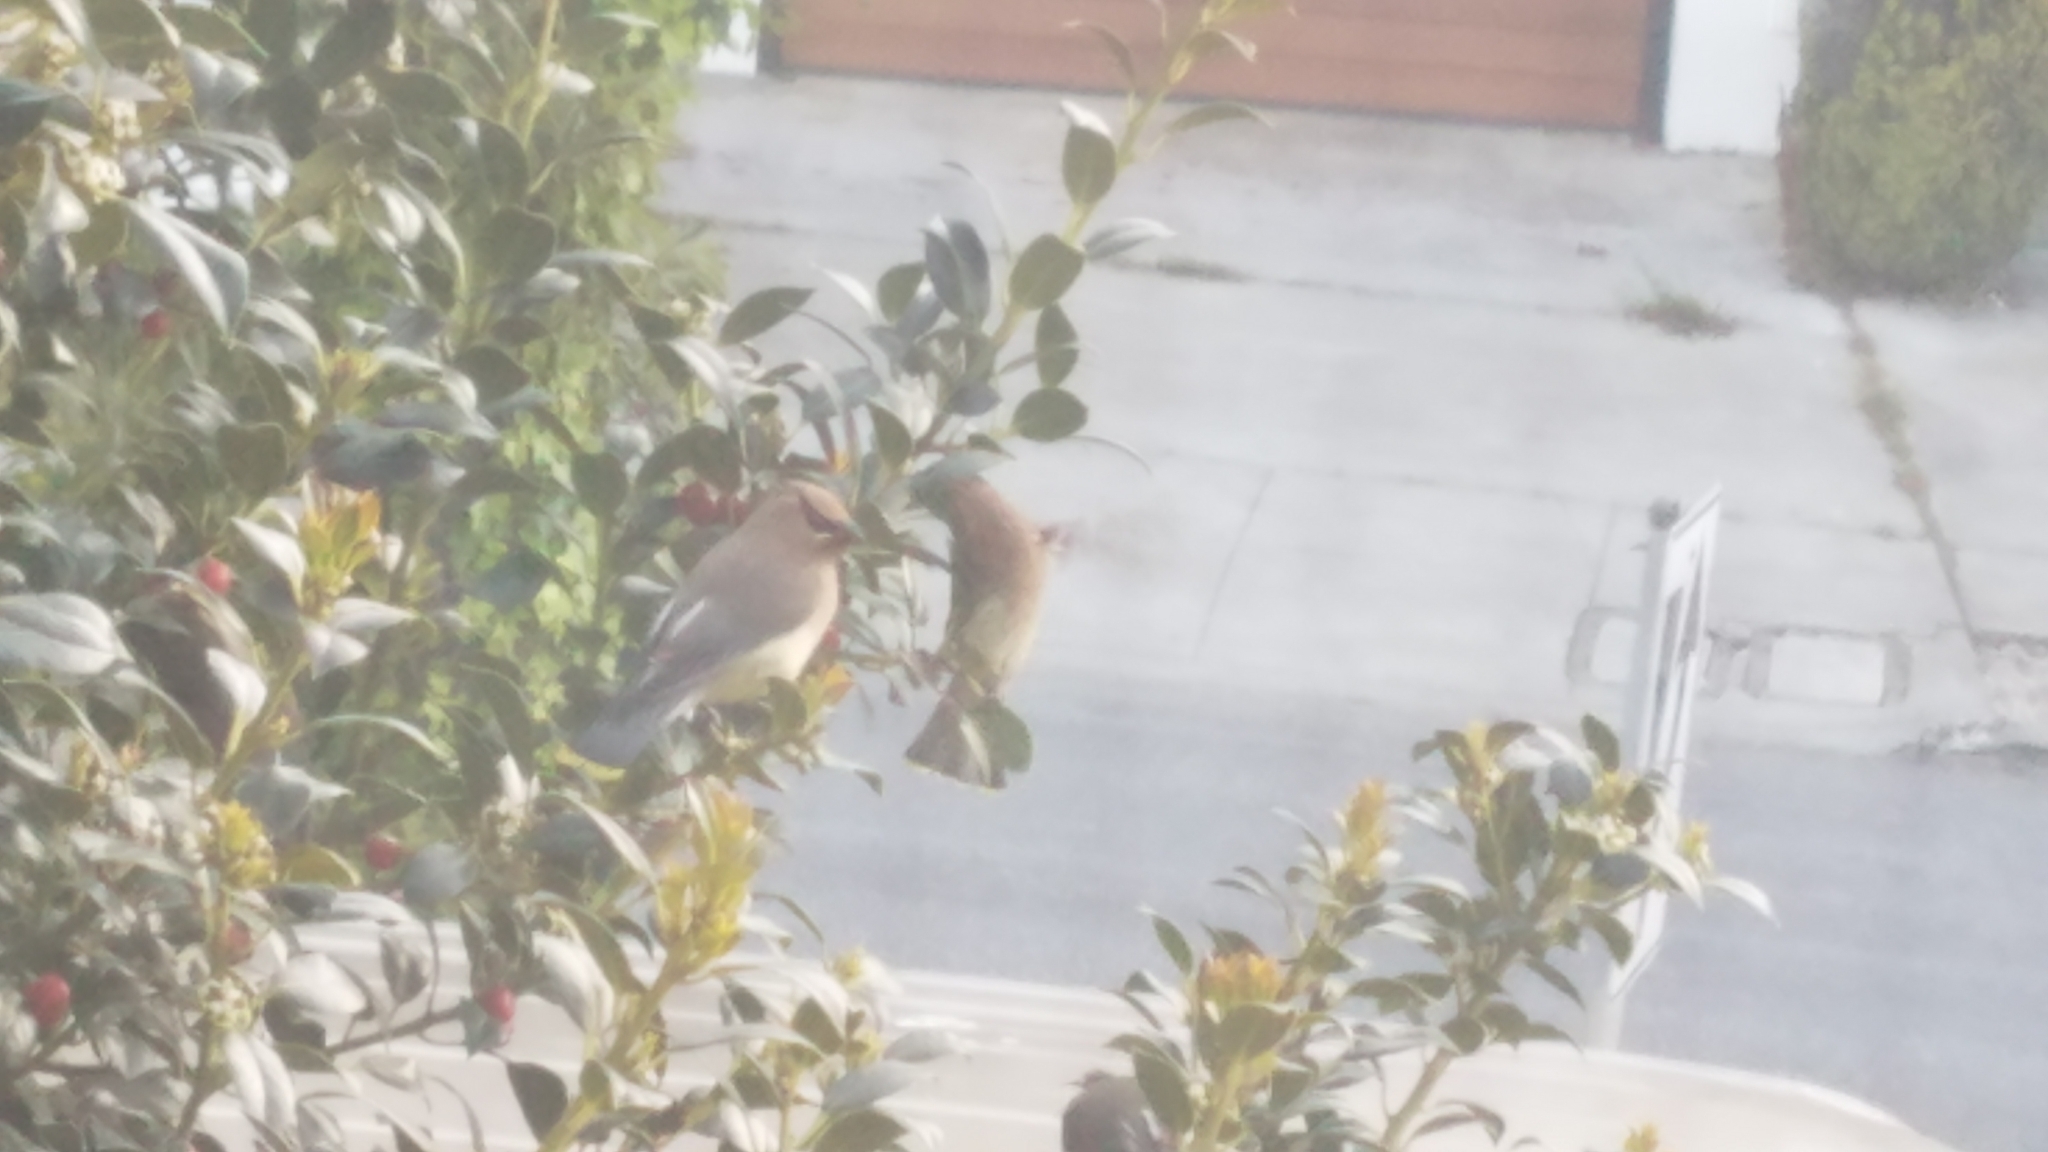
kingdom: Animalia
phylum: Chordata
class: Aves
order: Passeriformes
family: Bombycillidae
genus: Bombycilla
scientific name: Bombycilla cedrorum
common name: Cedar waxwing
